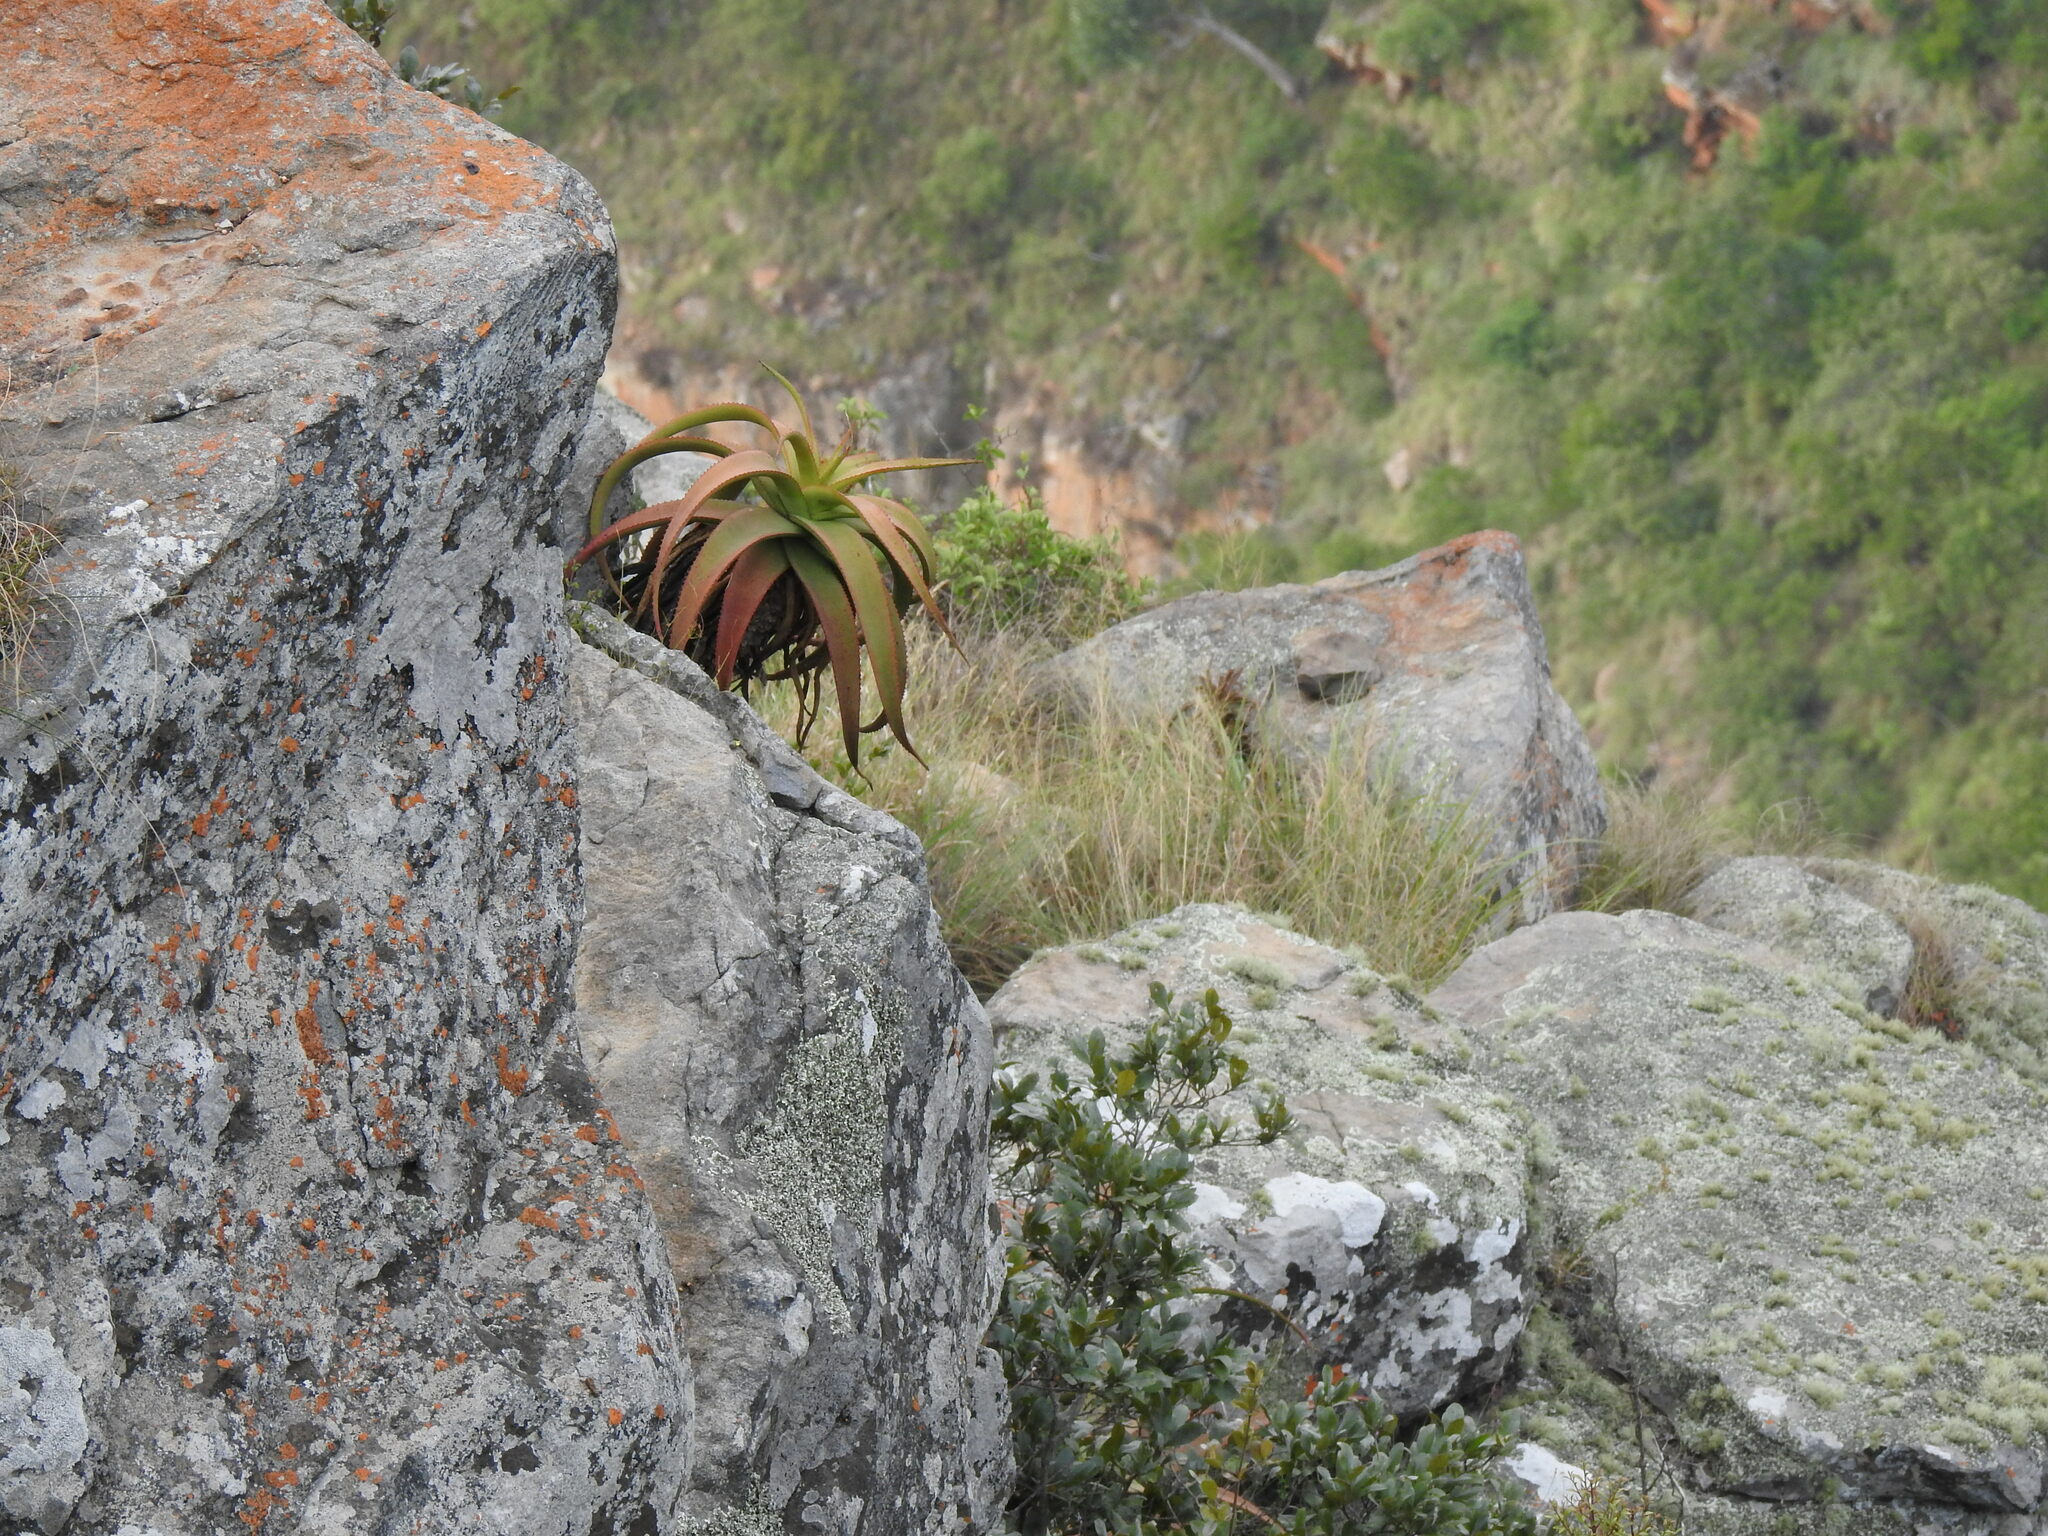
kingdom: Plantae
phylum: Tracheophyta
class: Liliopsida
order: Asparagales
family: Asphodelaceae
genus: Aloe
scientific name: Aloe spicata
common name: Gazaland aloe
